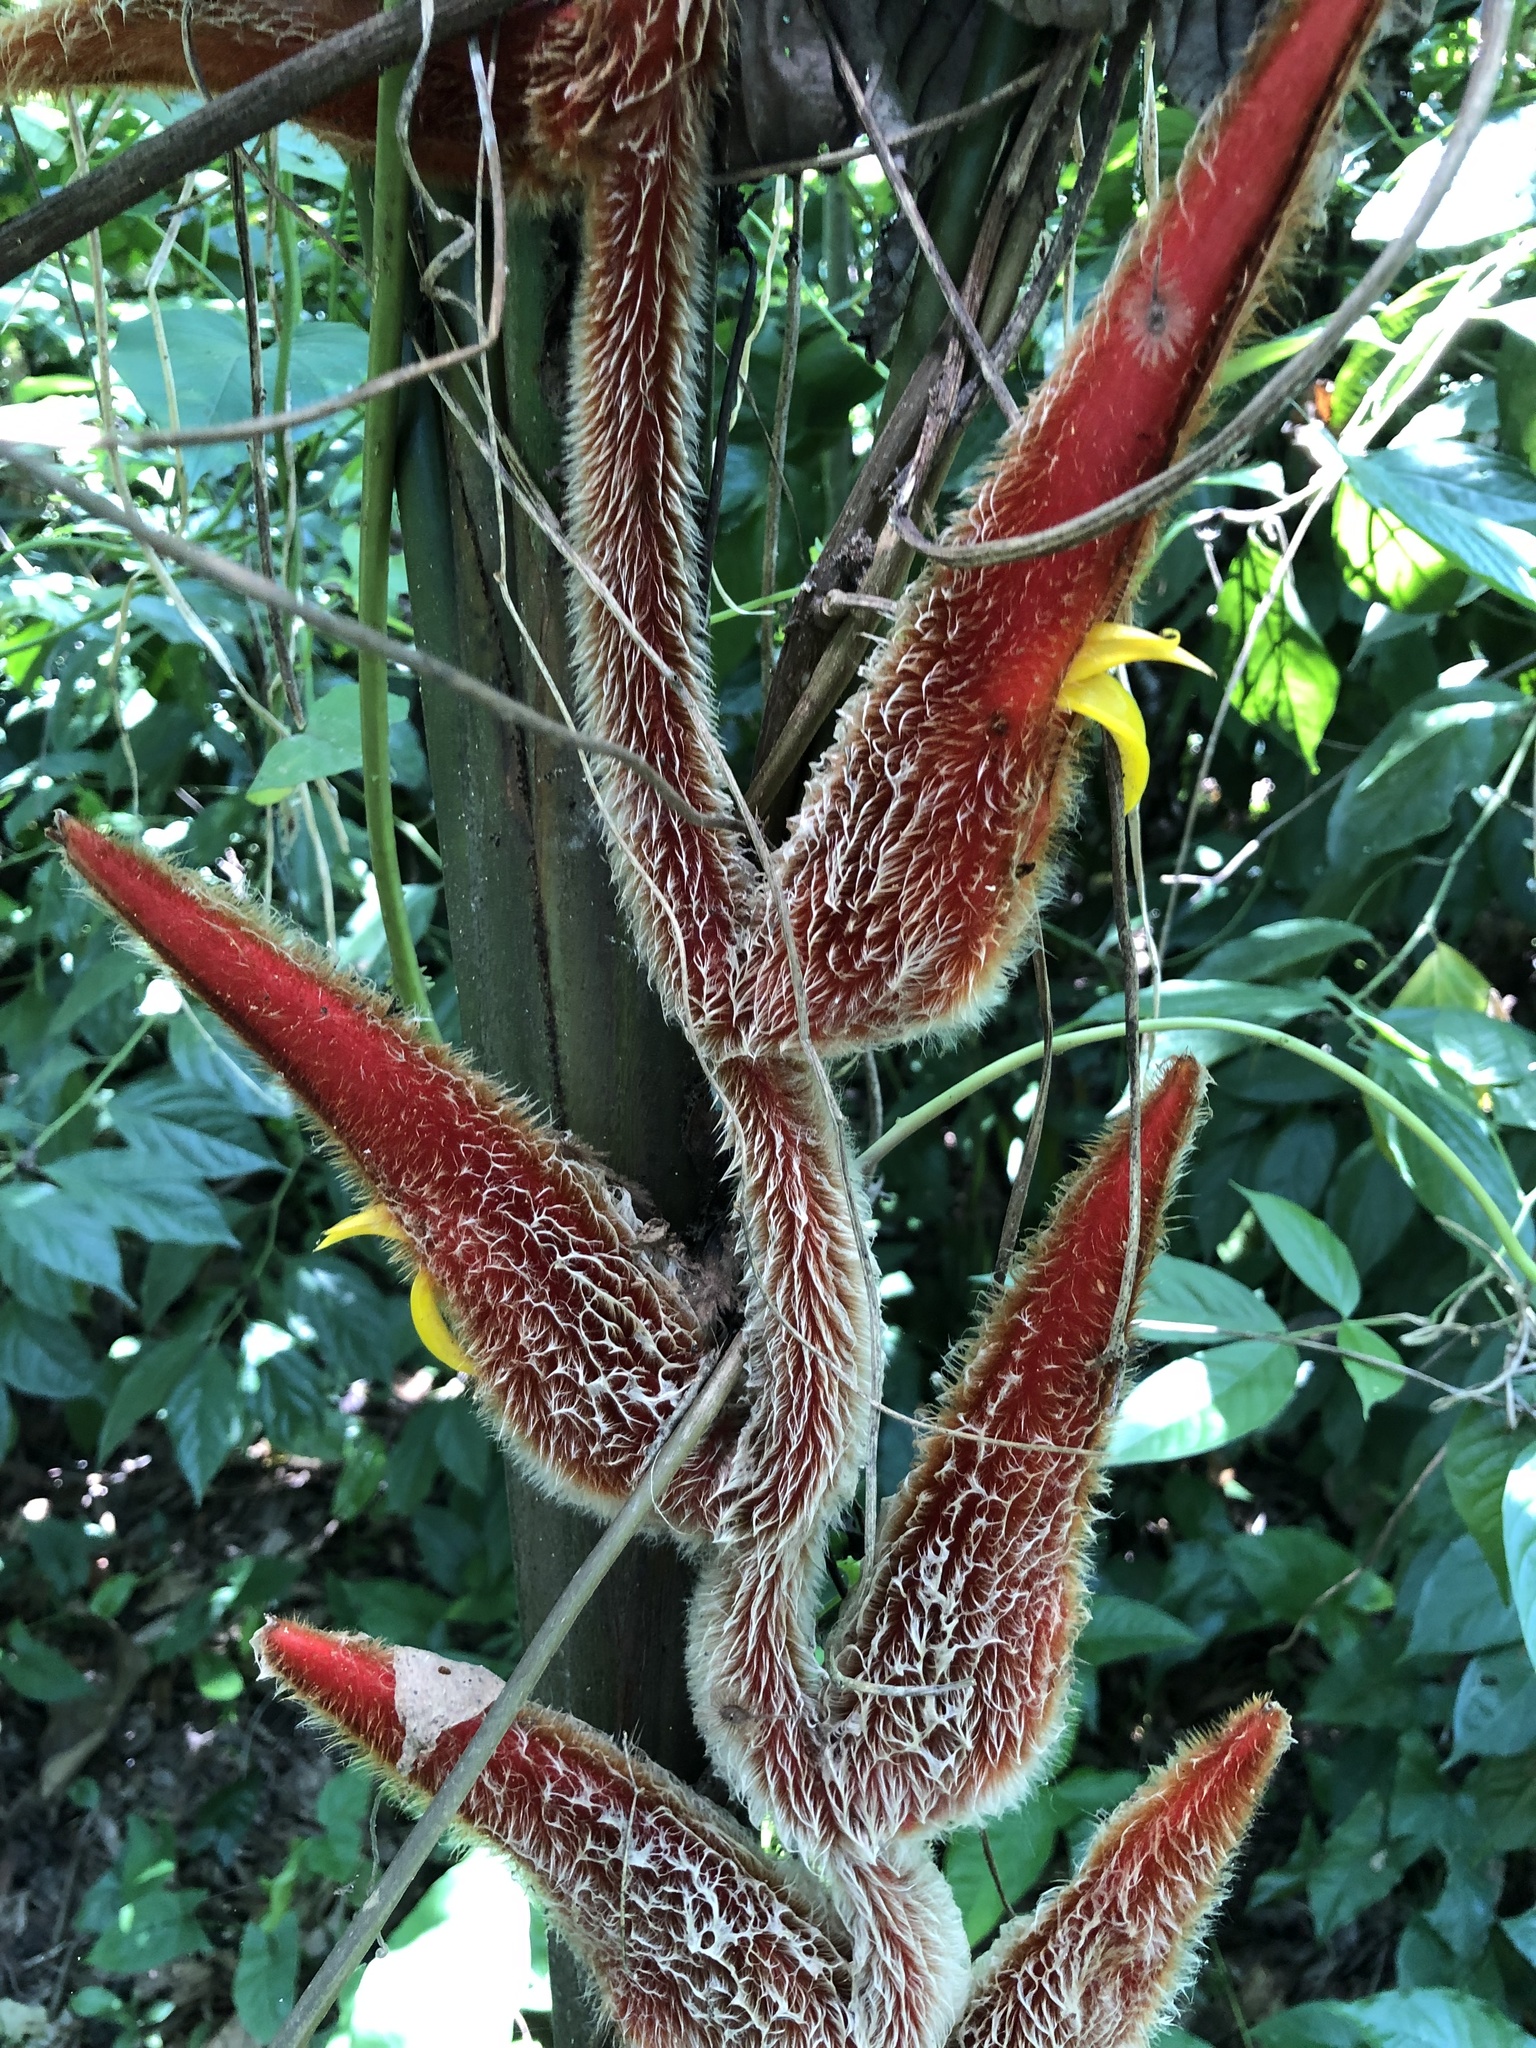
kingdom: Plantae
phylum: Tracheophyta
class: Liliopsida
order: Zingiberales
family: Heliconiaceae
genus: Heliconia
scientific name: Heliconia vellerigera
